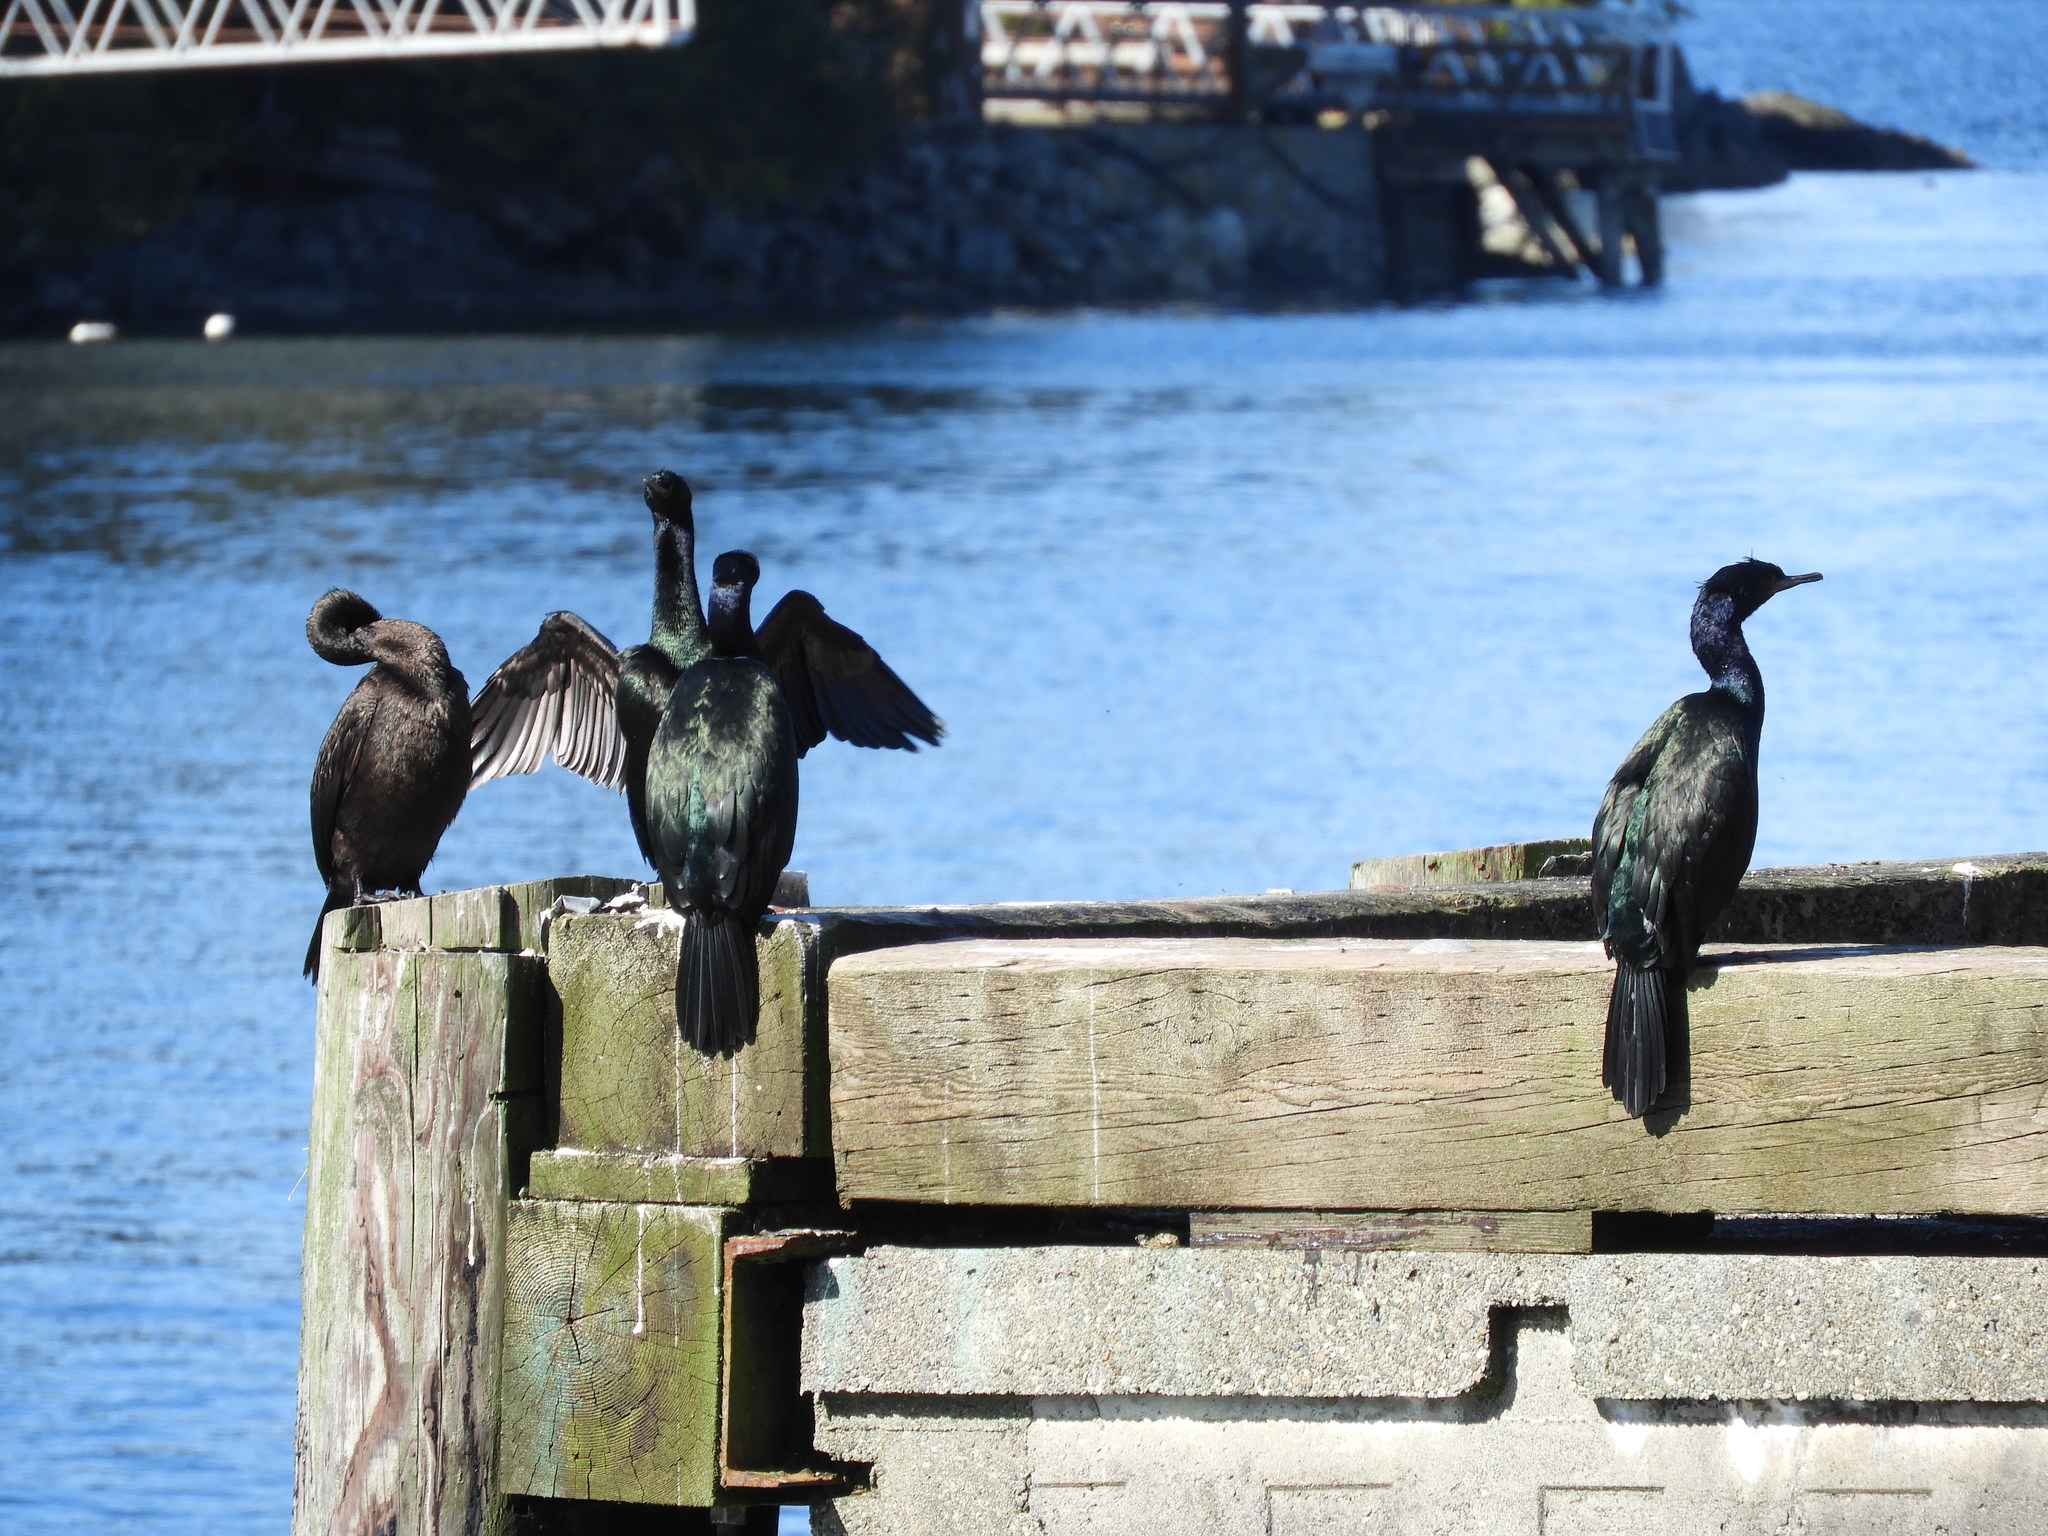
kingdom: Animalia
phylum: Chordata
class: Aves
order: Suliformes
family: Phalacrocoracidae
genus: Phalacrocorax
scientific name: Phalacrocorax pelagicus
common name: Pelagic cormorant
